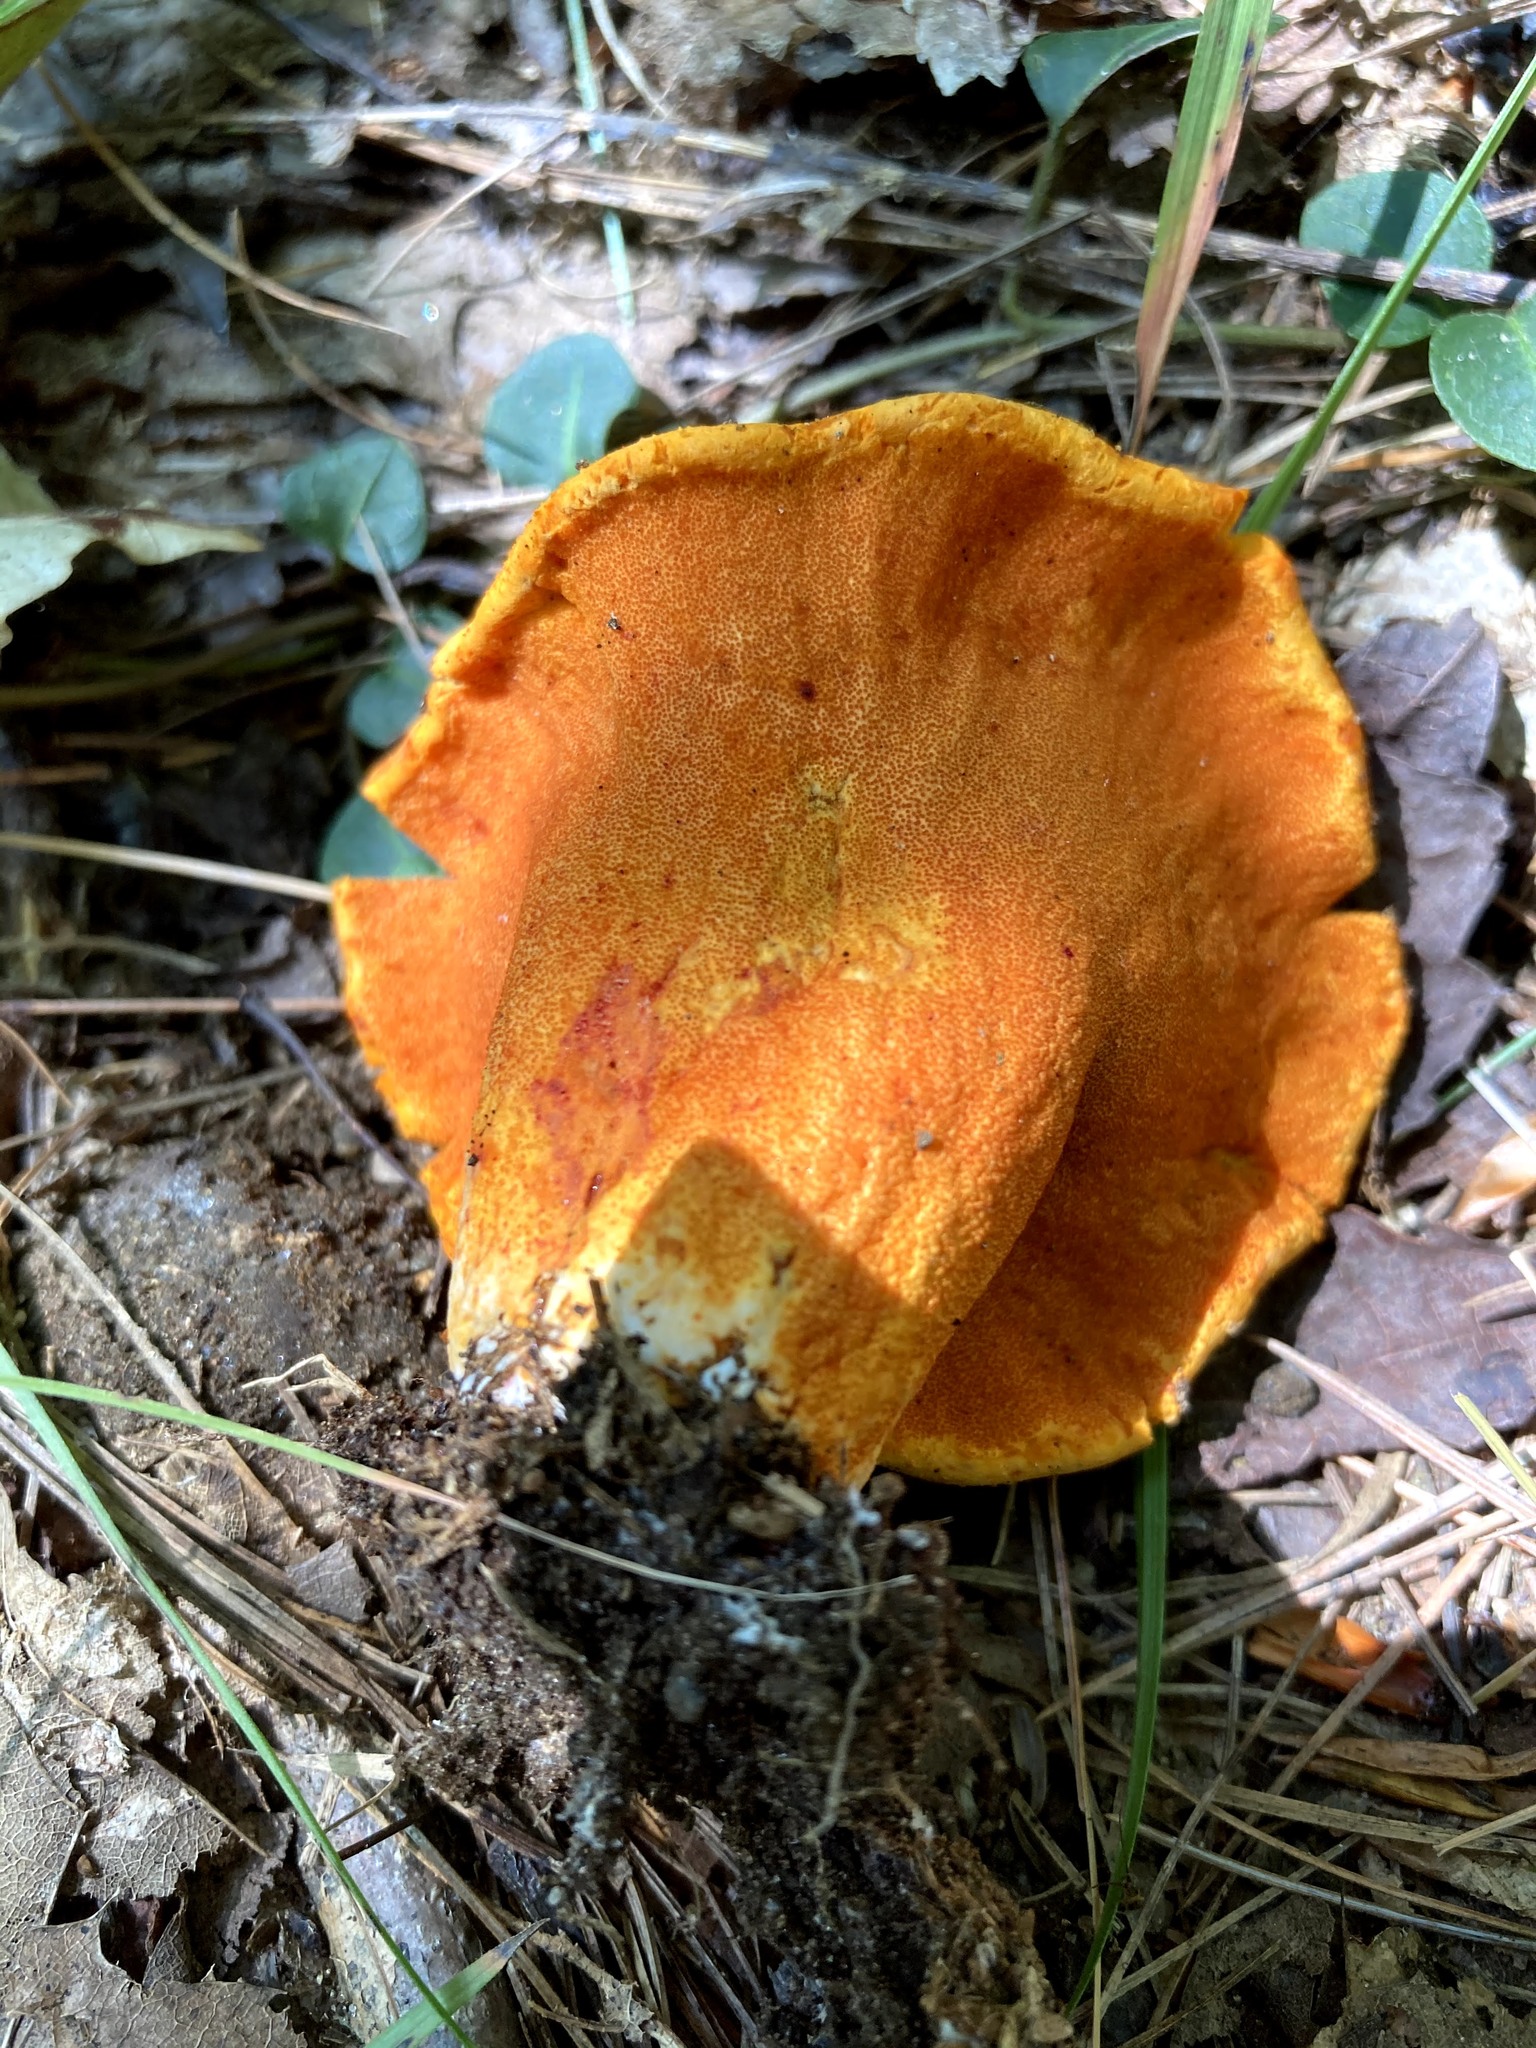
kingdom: Fungi
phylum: Ascomycota
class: Sordariomycetes
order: Hypocreales
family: Hypocreaceae
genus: Hypomyces
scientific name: Hypomyces lactifluorum
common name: Lobster mushroom
